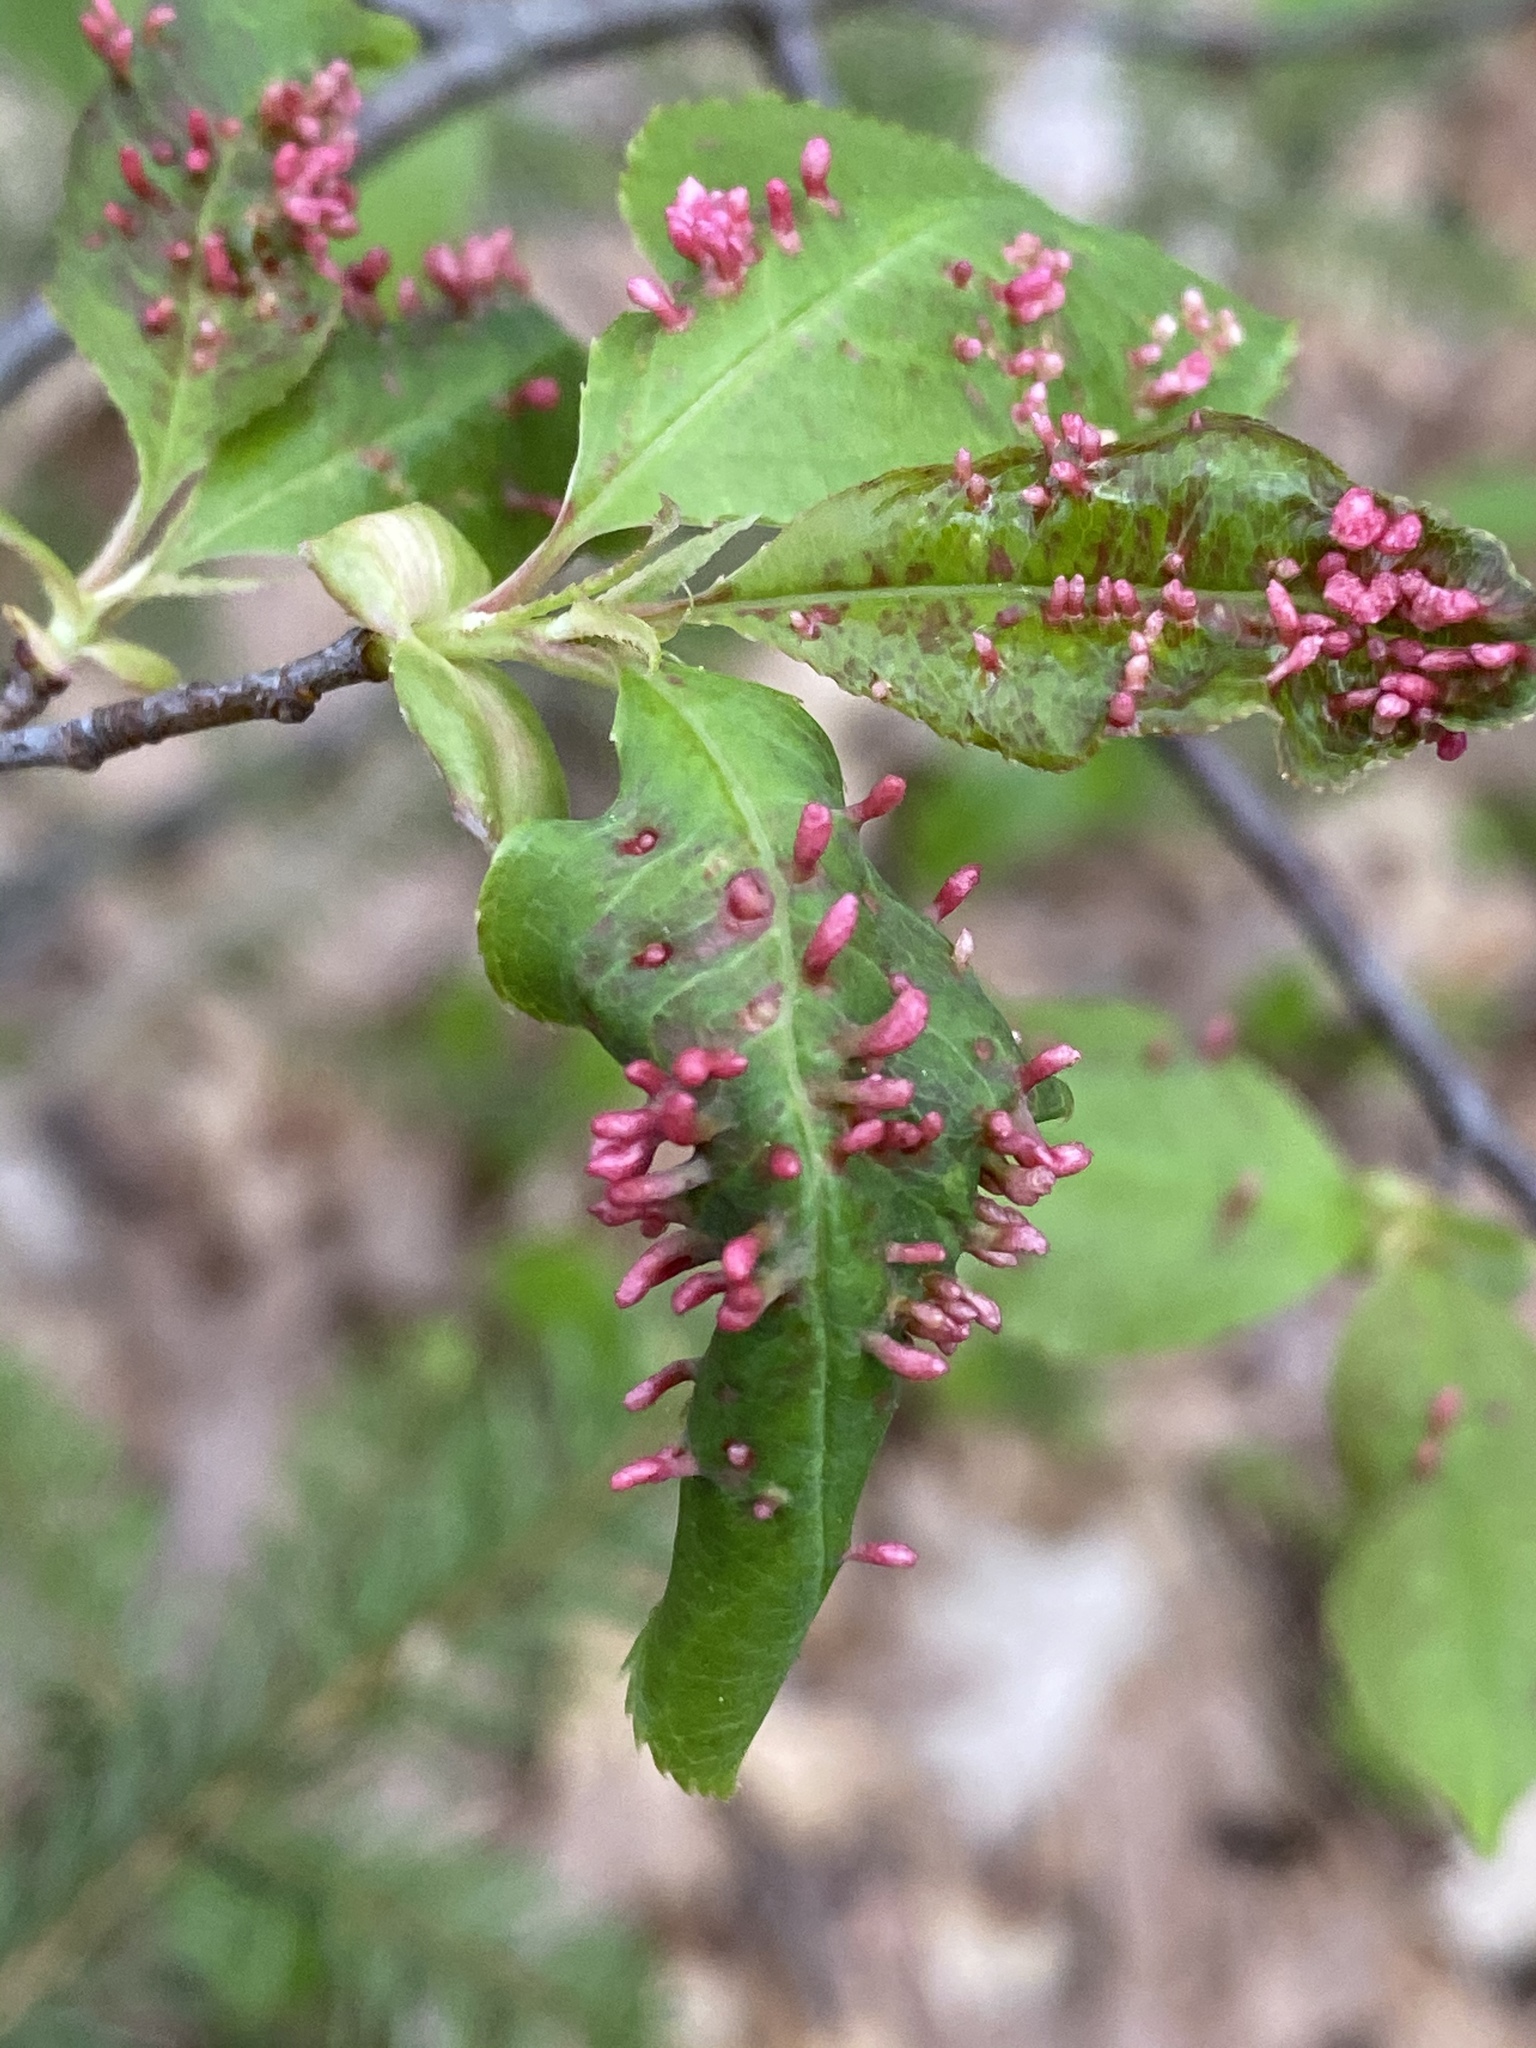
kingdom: Animalia
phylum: Arthropoda
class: Arachnida
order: Trombidiformes
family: Eriophyidae
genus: Eriophyes
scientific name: Eriophyes
